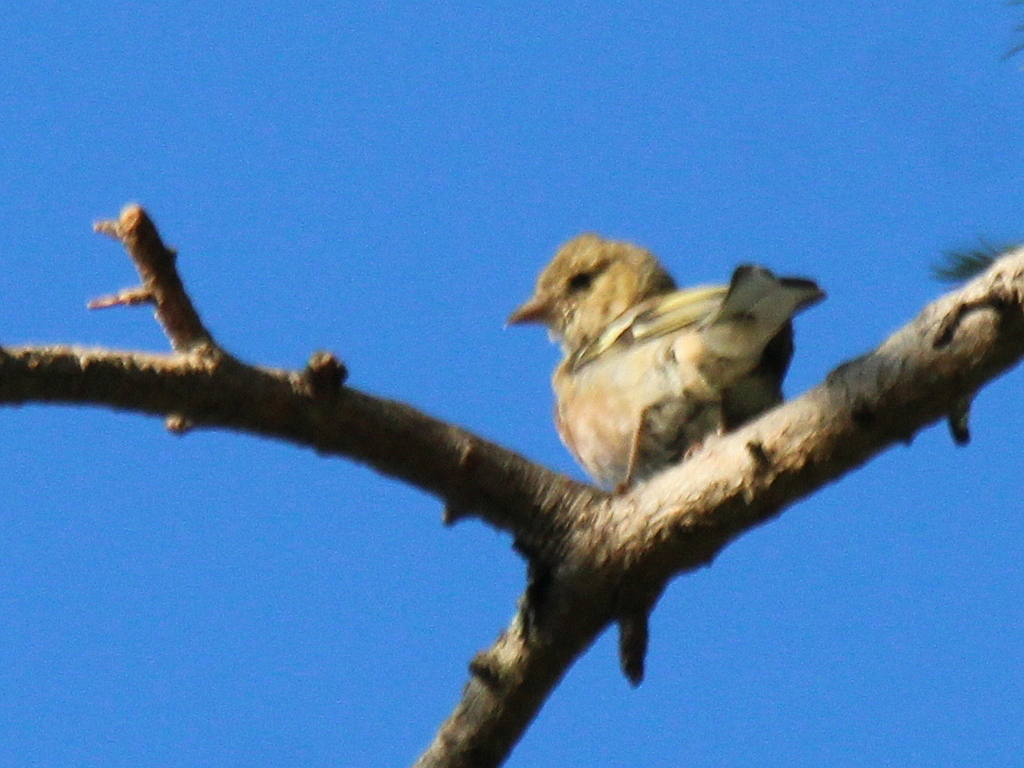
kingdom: Animalia
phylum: Chordata
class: Aves
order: Passeriformes
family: Fringillidae
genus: Fringilla
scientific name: Fringilla coelebs
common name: Common chaffinch
